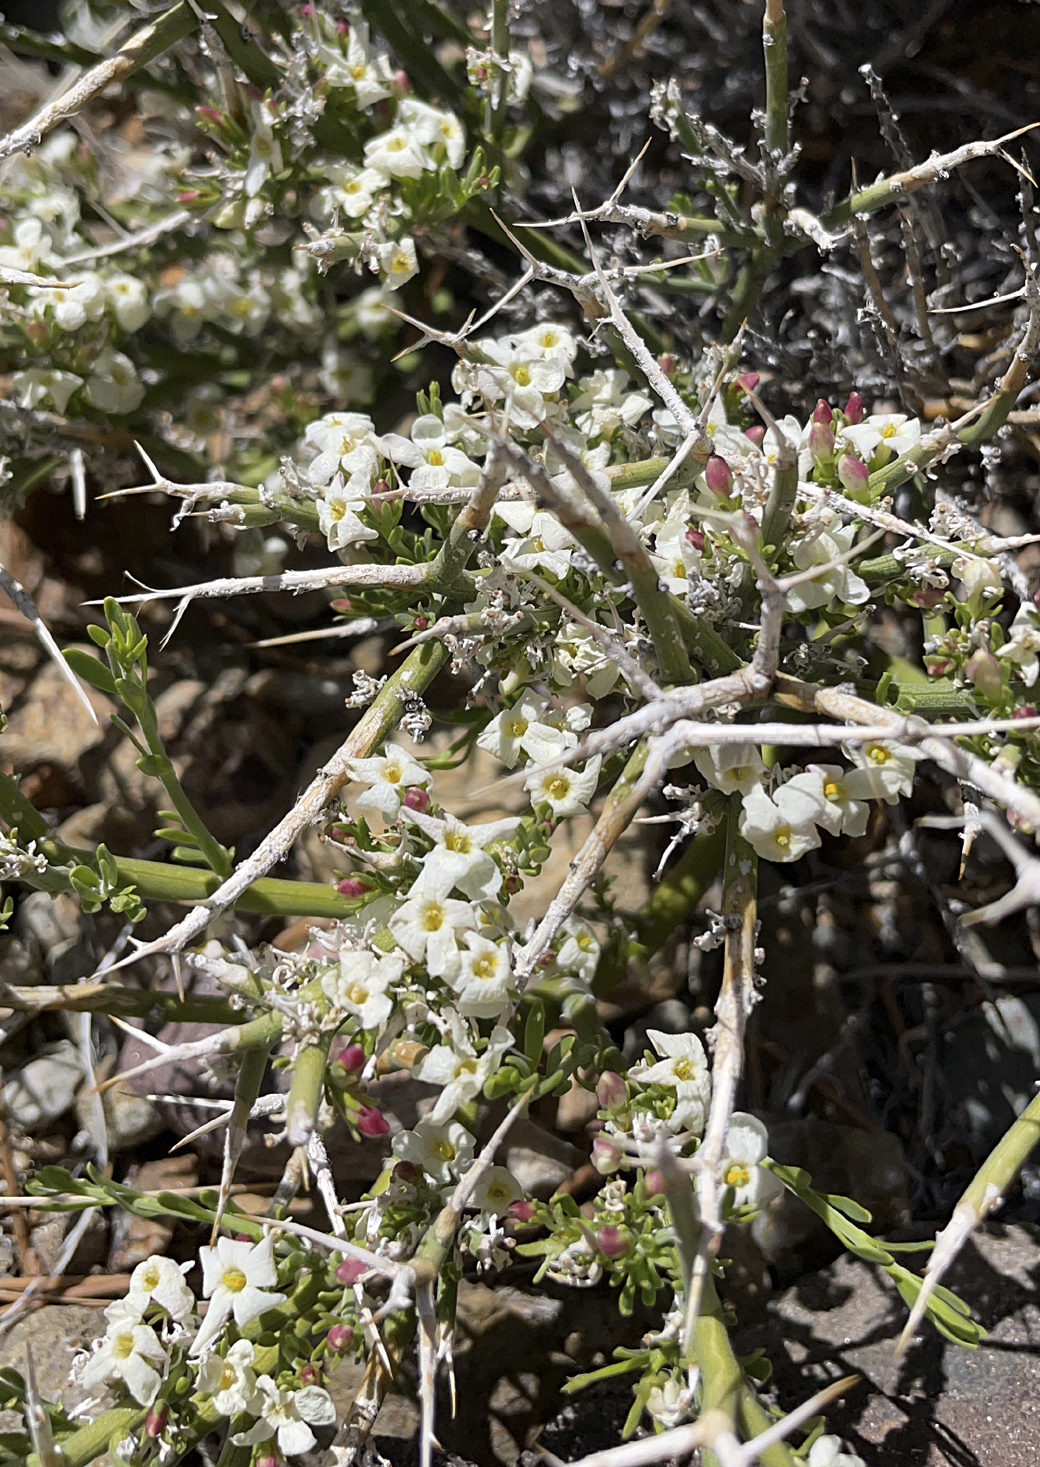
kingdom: Plantae
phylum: Tracheophyta
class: Magnoliopsida
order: Lamiales
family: Oleaceae
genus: Menodora
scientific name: Menodora spinescens
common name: Spiny menodora
